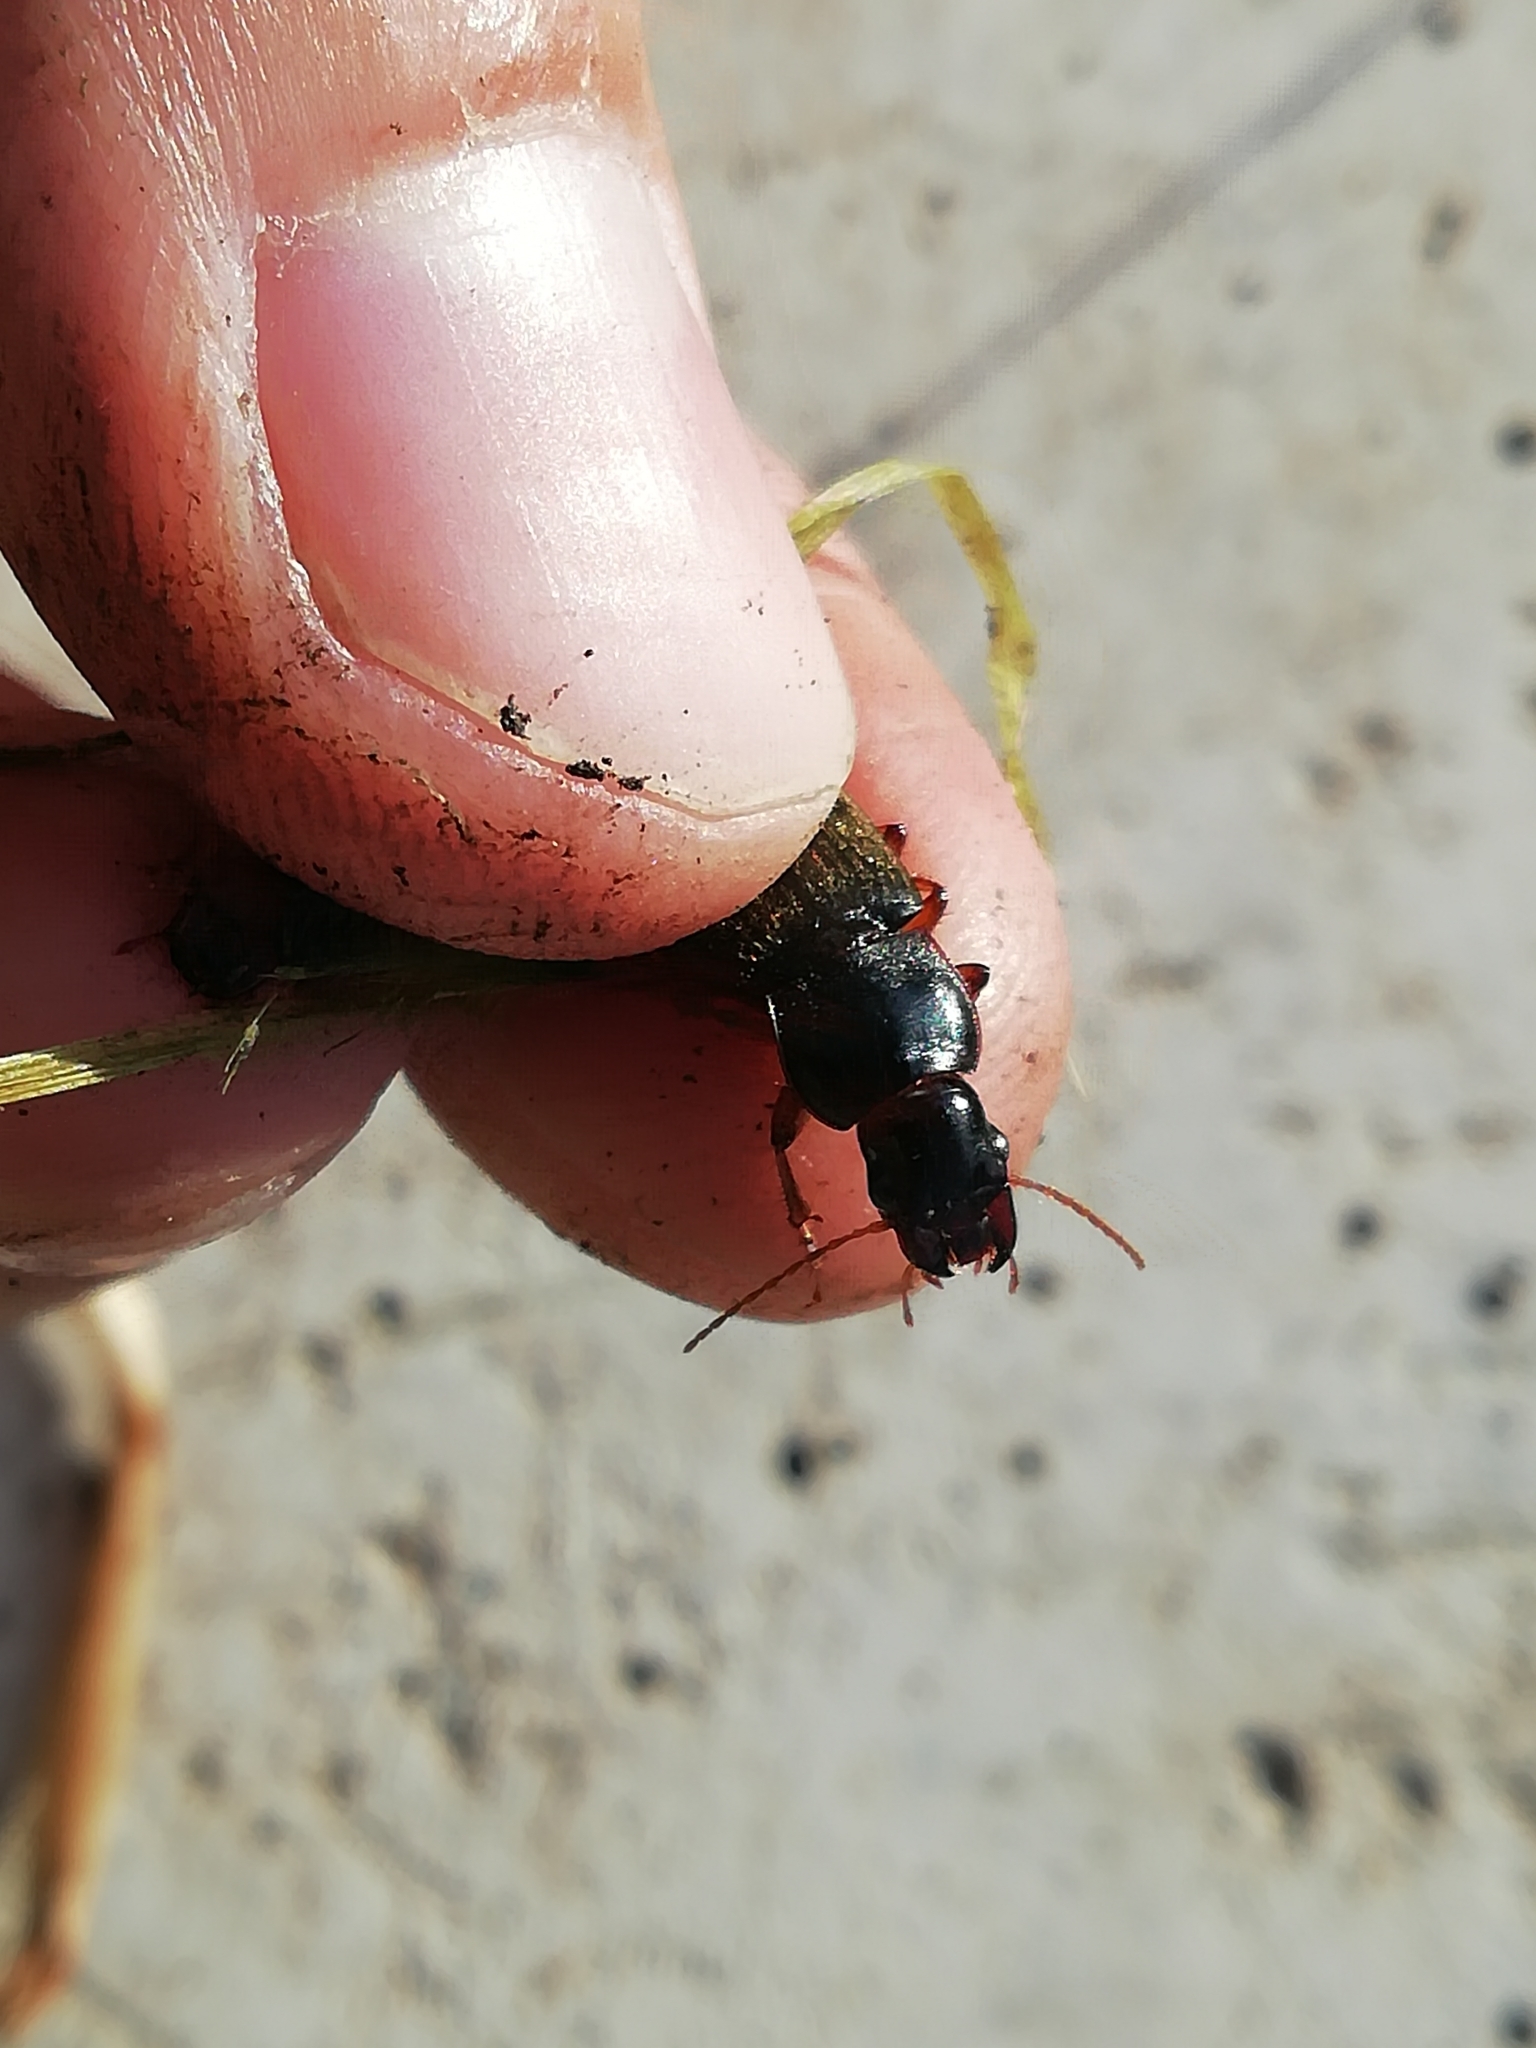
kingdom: Animalia
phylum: Arthropoda
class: Insecta
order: Coleoptera
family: Carabidae
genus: Harpalus
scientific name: Harpalus rufipes
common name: Strawberry harp ground beetle
